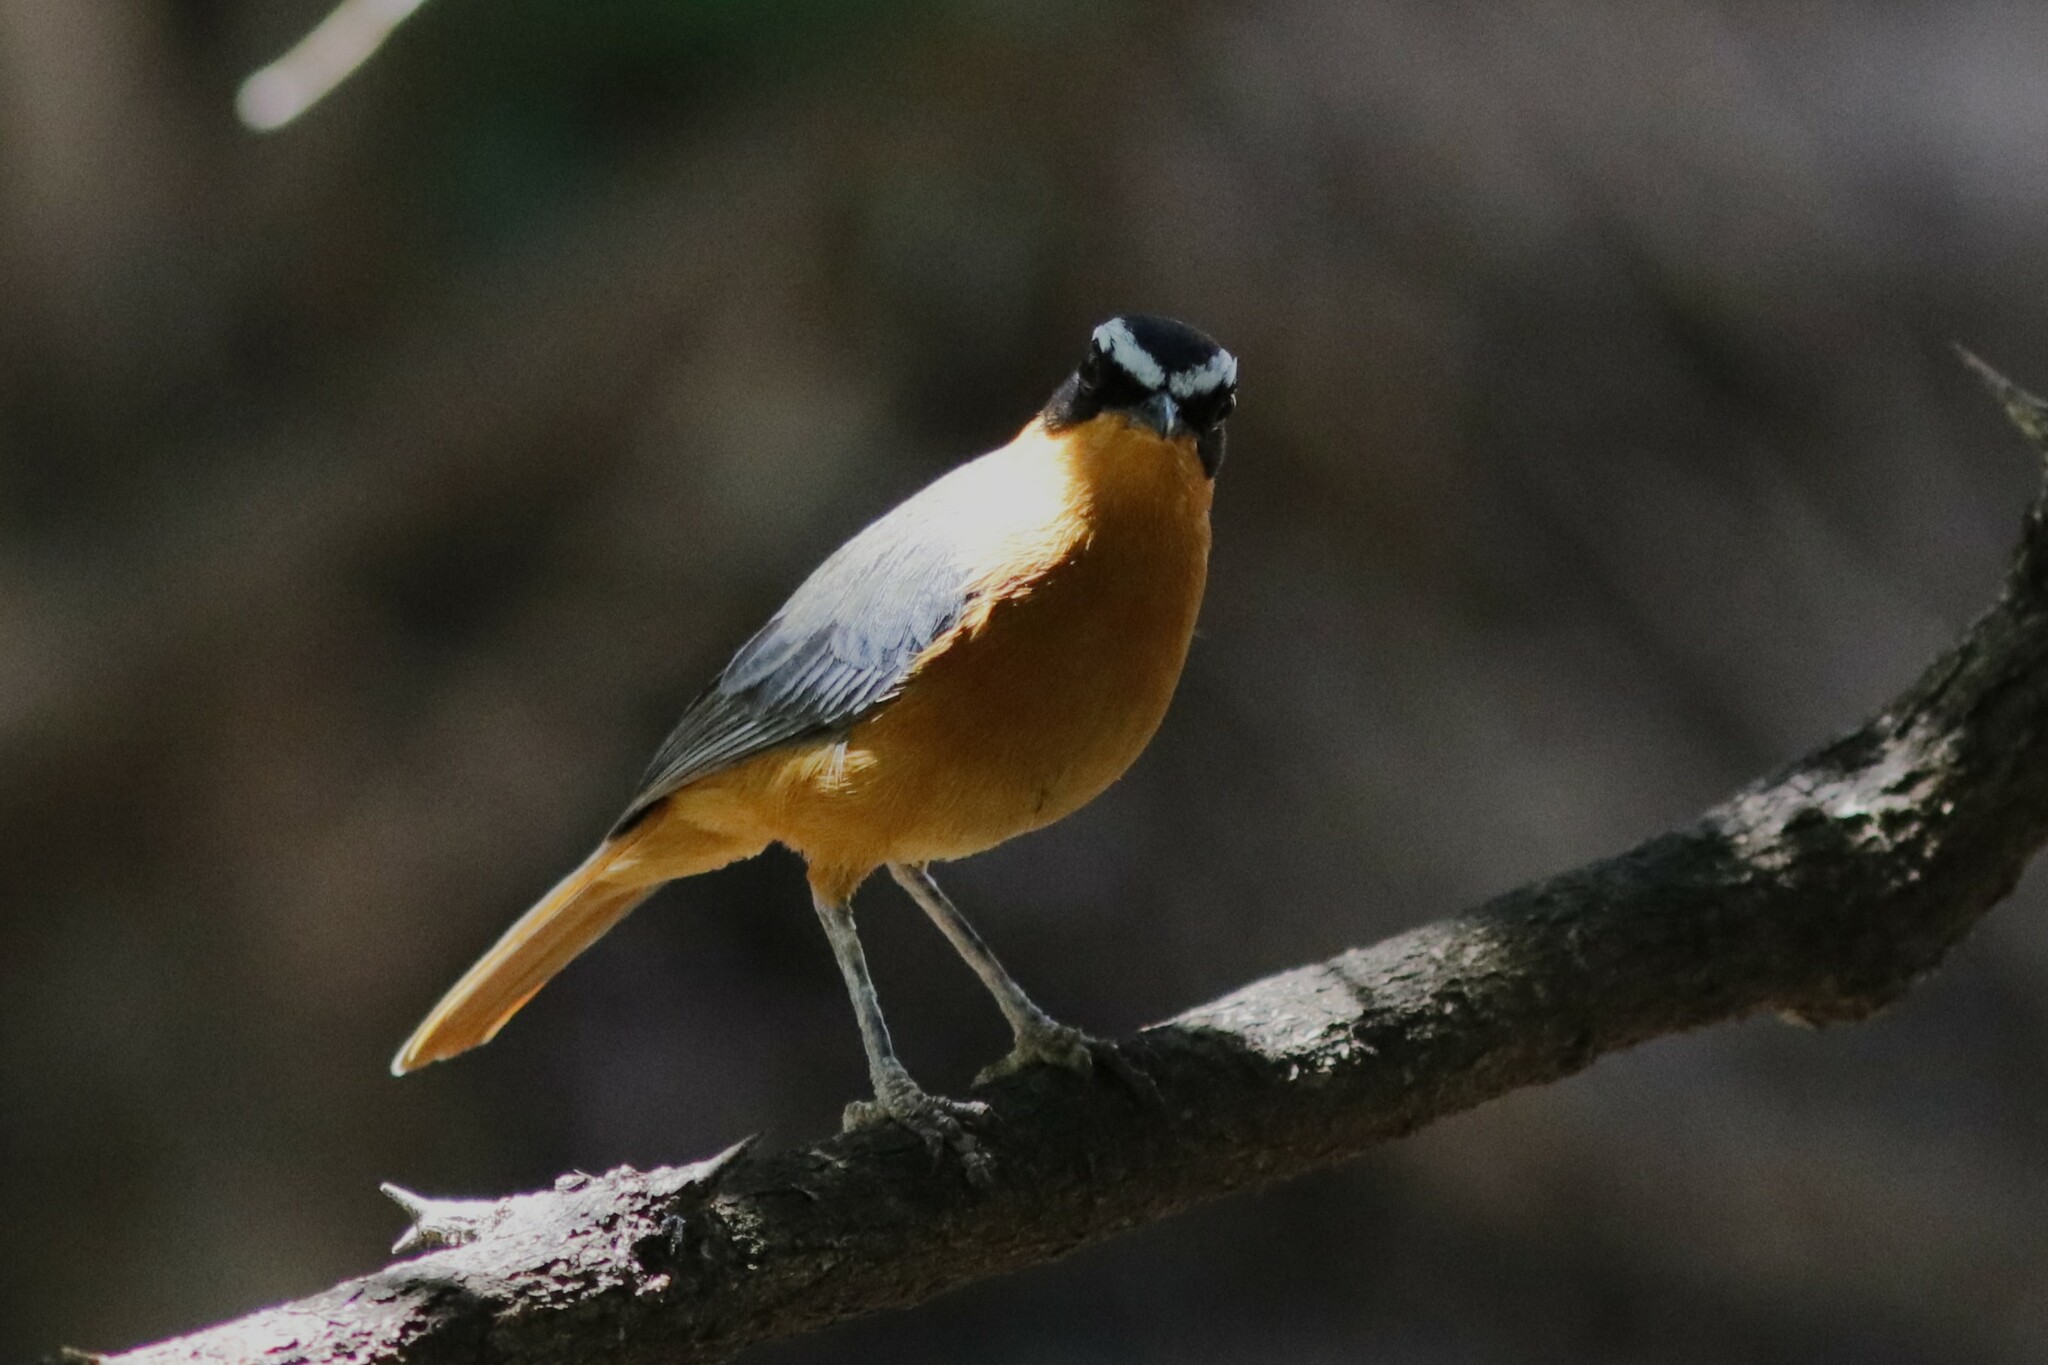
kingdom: Animalia
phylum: Chordata
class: Aves
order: Passeriformes
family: Muscicapidae
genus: Cossypha
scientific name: Cossypha heuglini
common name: White-browed robin-chat
